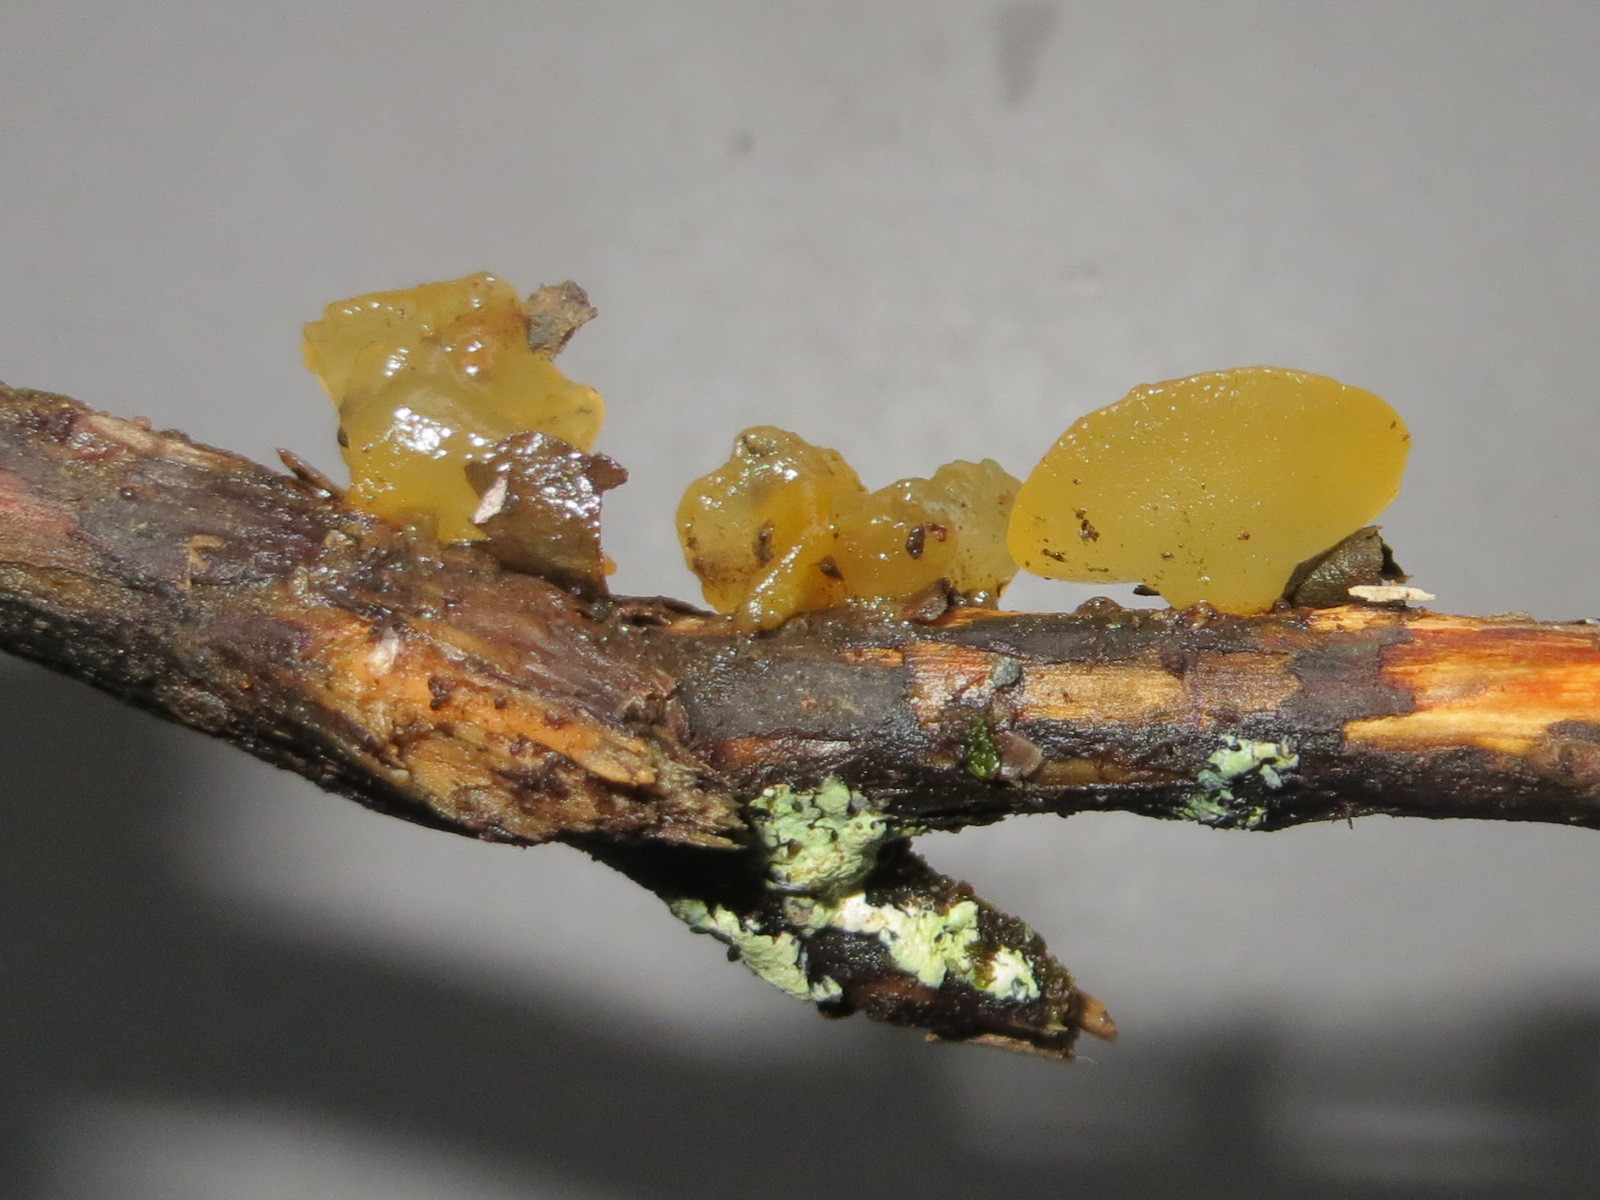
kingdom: Fungi
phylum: Basidiomycota
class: Dacrymycetes
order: Dacrymycetales
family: Dacrymycetaceae
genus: Heterotextus
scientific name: Heterotextus miltinus
